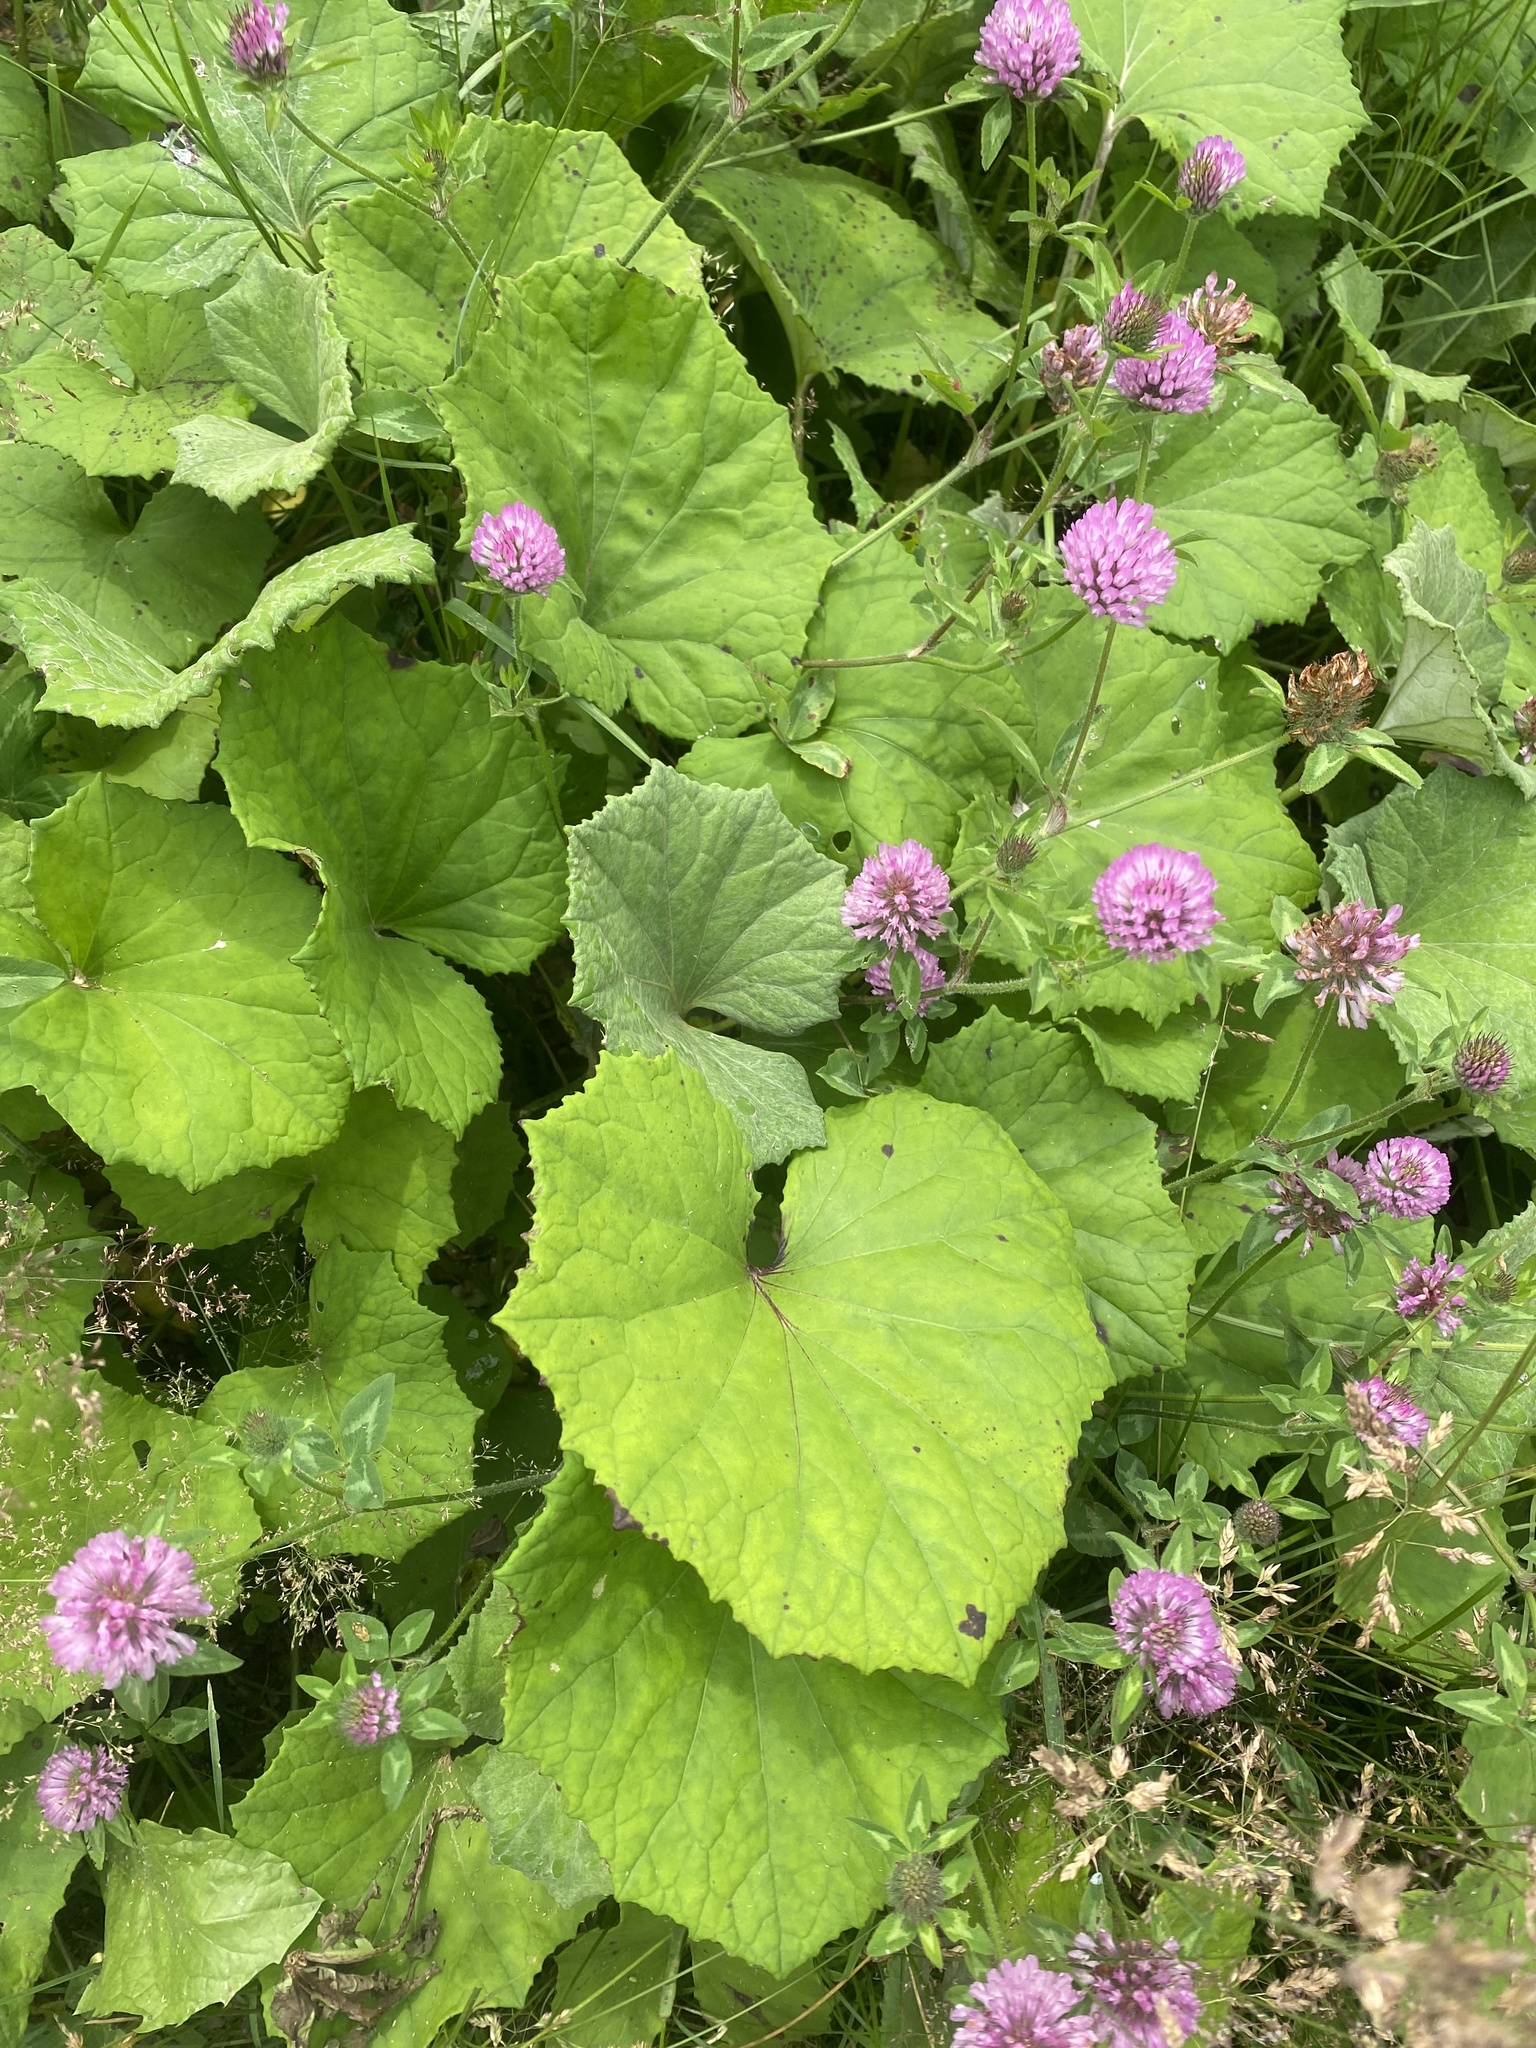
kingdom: Plantae
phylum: Tracheophyta
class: Magnoliopsida
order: Asterales
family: Asteraceae
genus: Tussilago
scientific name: Tussilago farfara
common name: Coltsfoot
